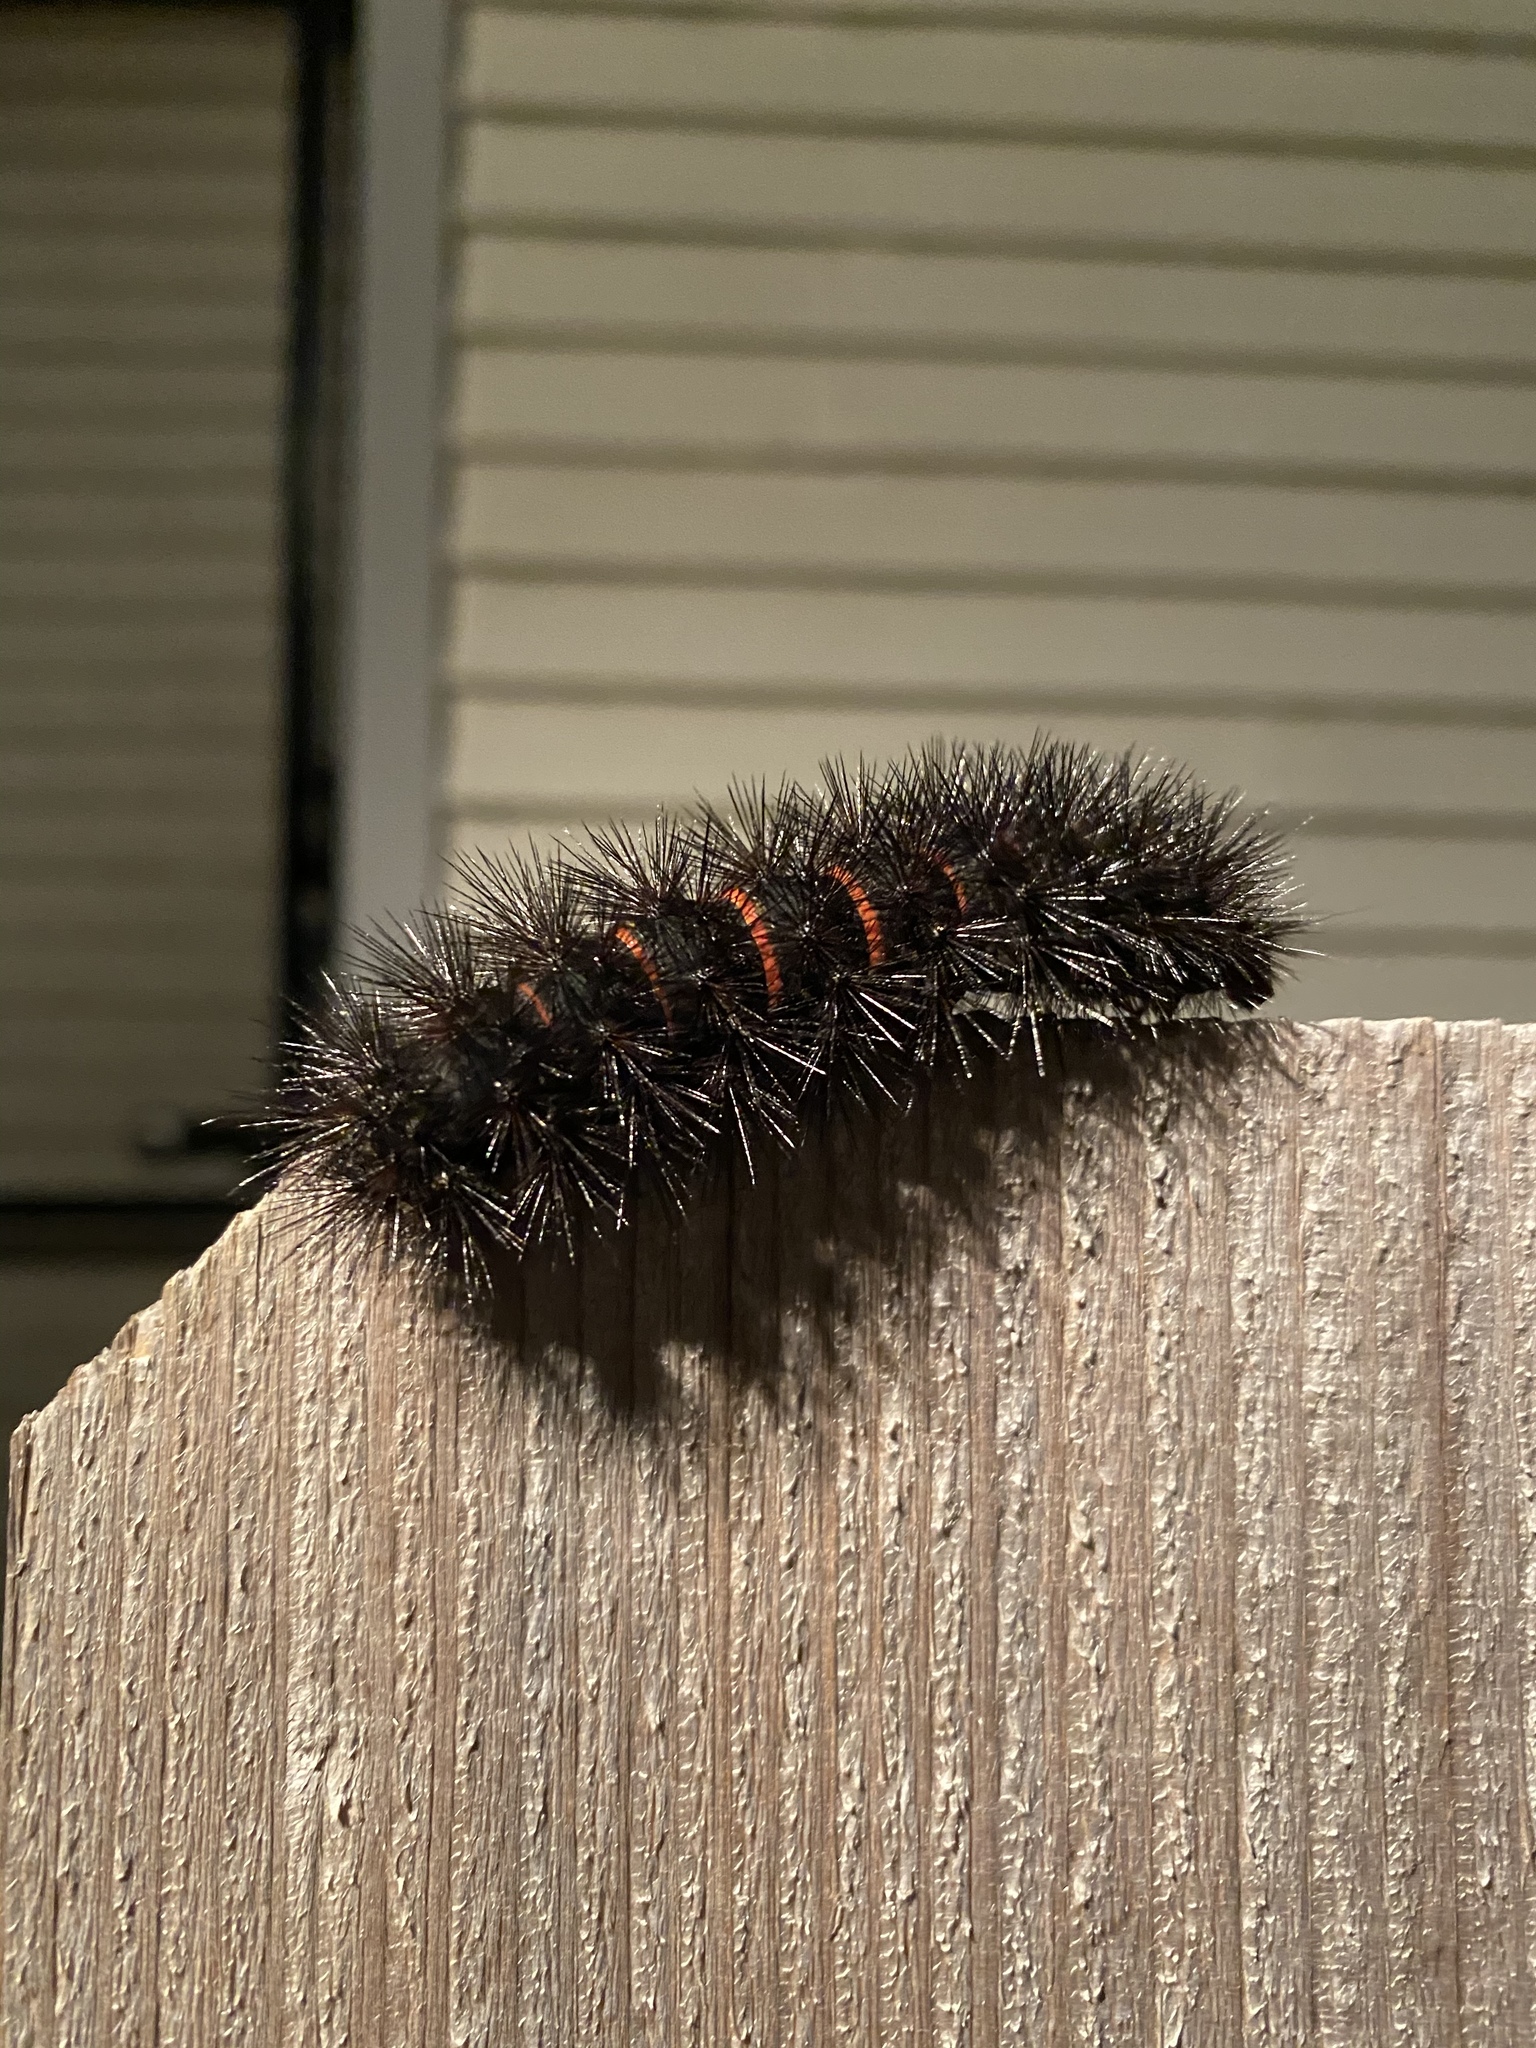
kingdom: Animalia
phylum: Arthropoda
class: Insecta
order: Lepidoptera
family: Erebidae
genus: Hypercompe
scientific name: Hypercompe scribonia
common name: Giant leopard moth
